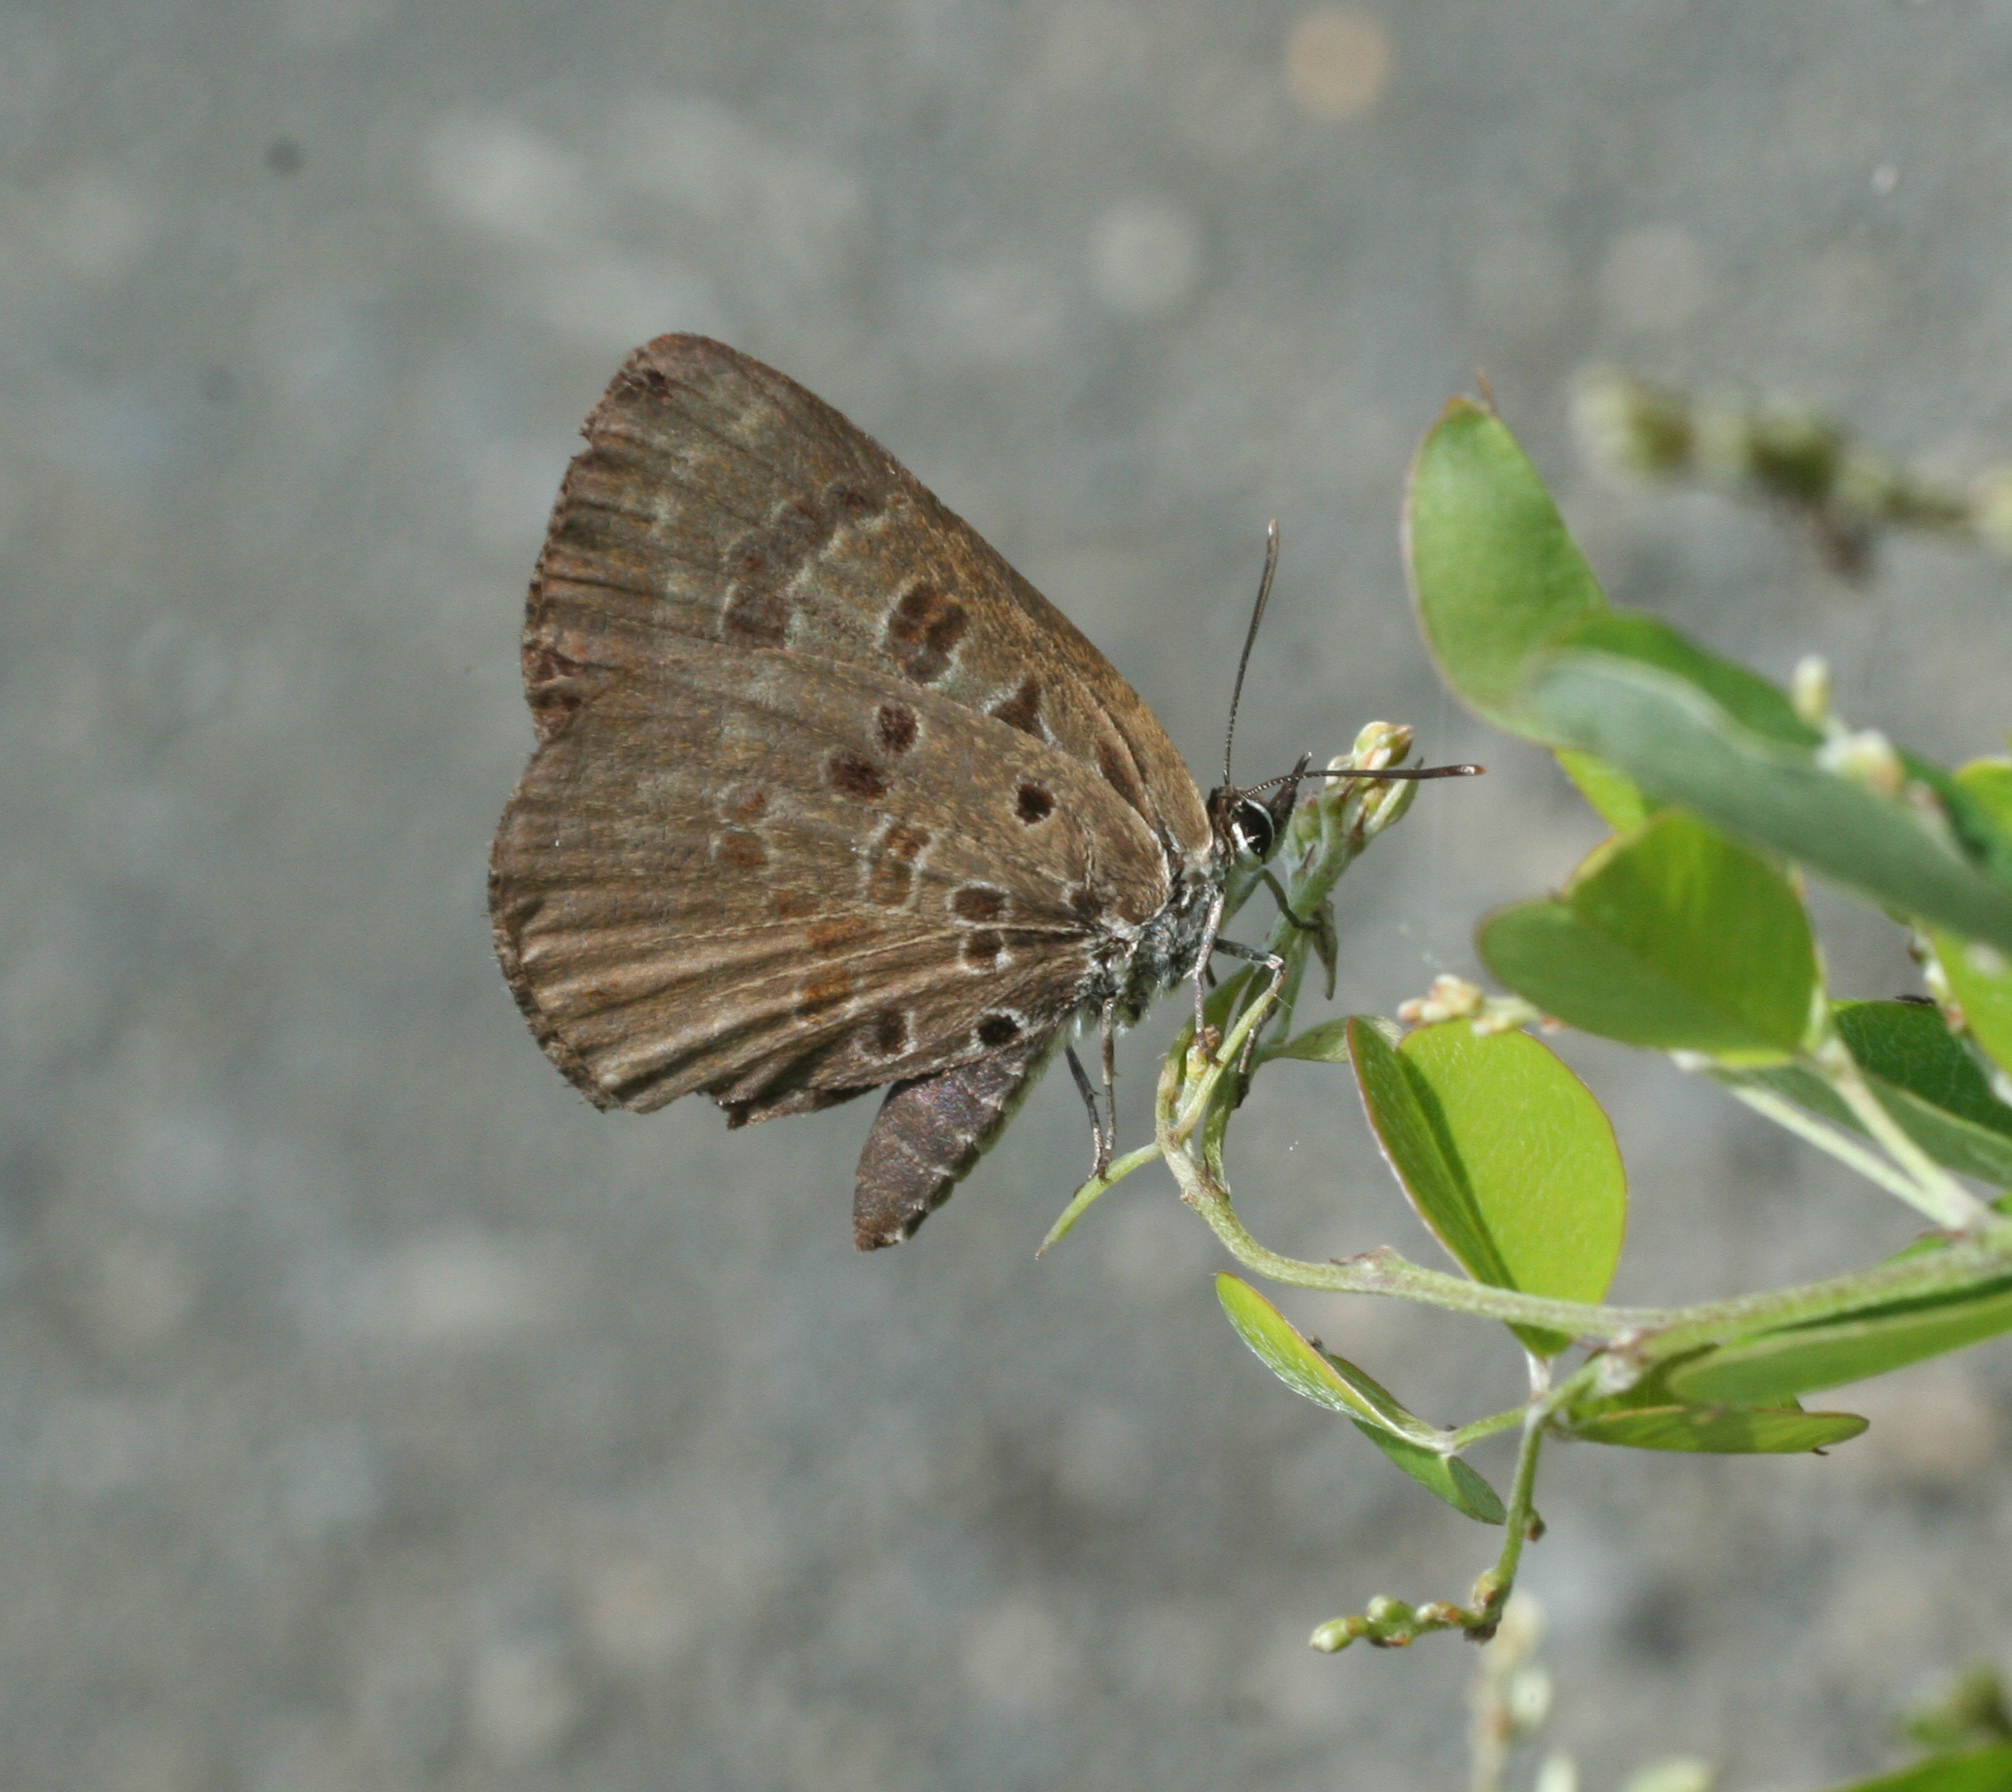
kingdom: Animalia
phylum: Arthropoda
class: Insecta
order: Lepidoptera
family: Lycaenidae
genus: Niphanda
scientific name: Niphanda fusca
